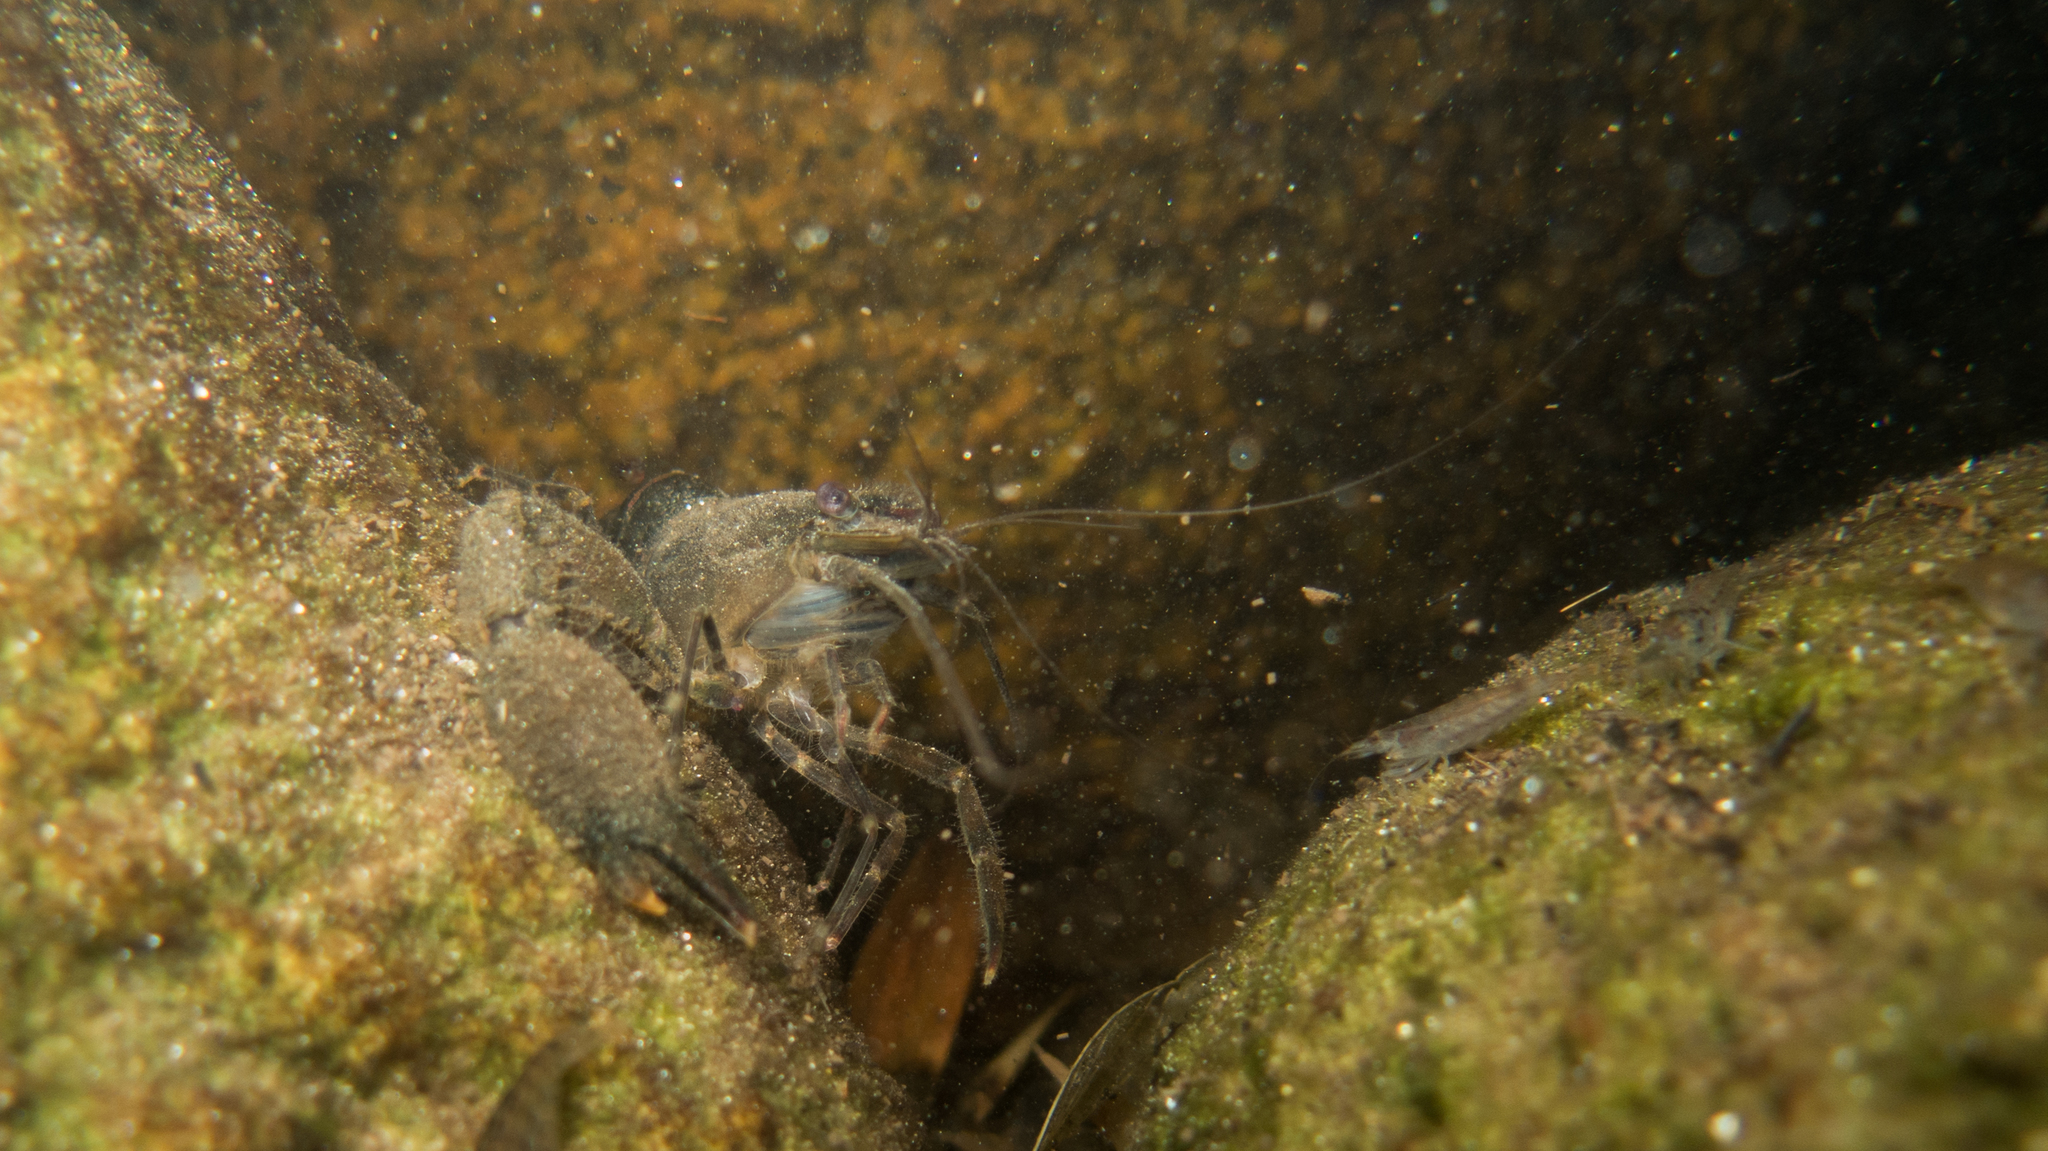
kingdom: Animalia
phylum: Arthropoda
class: Malacostraca
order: Decapoda
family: Palaemonidae
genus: Macrobrachium
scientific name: Macrobrachium olfersii
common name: Bristled river shrimp
